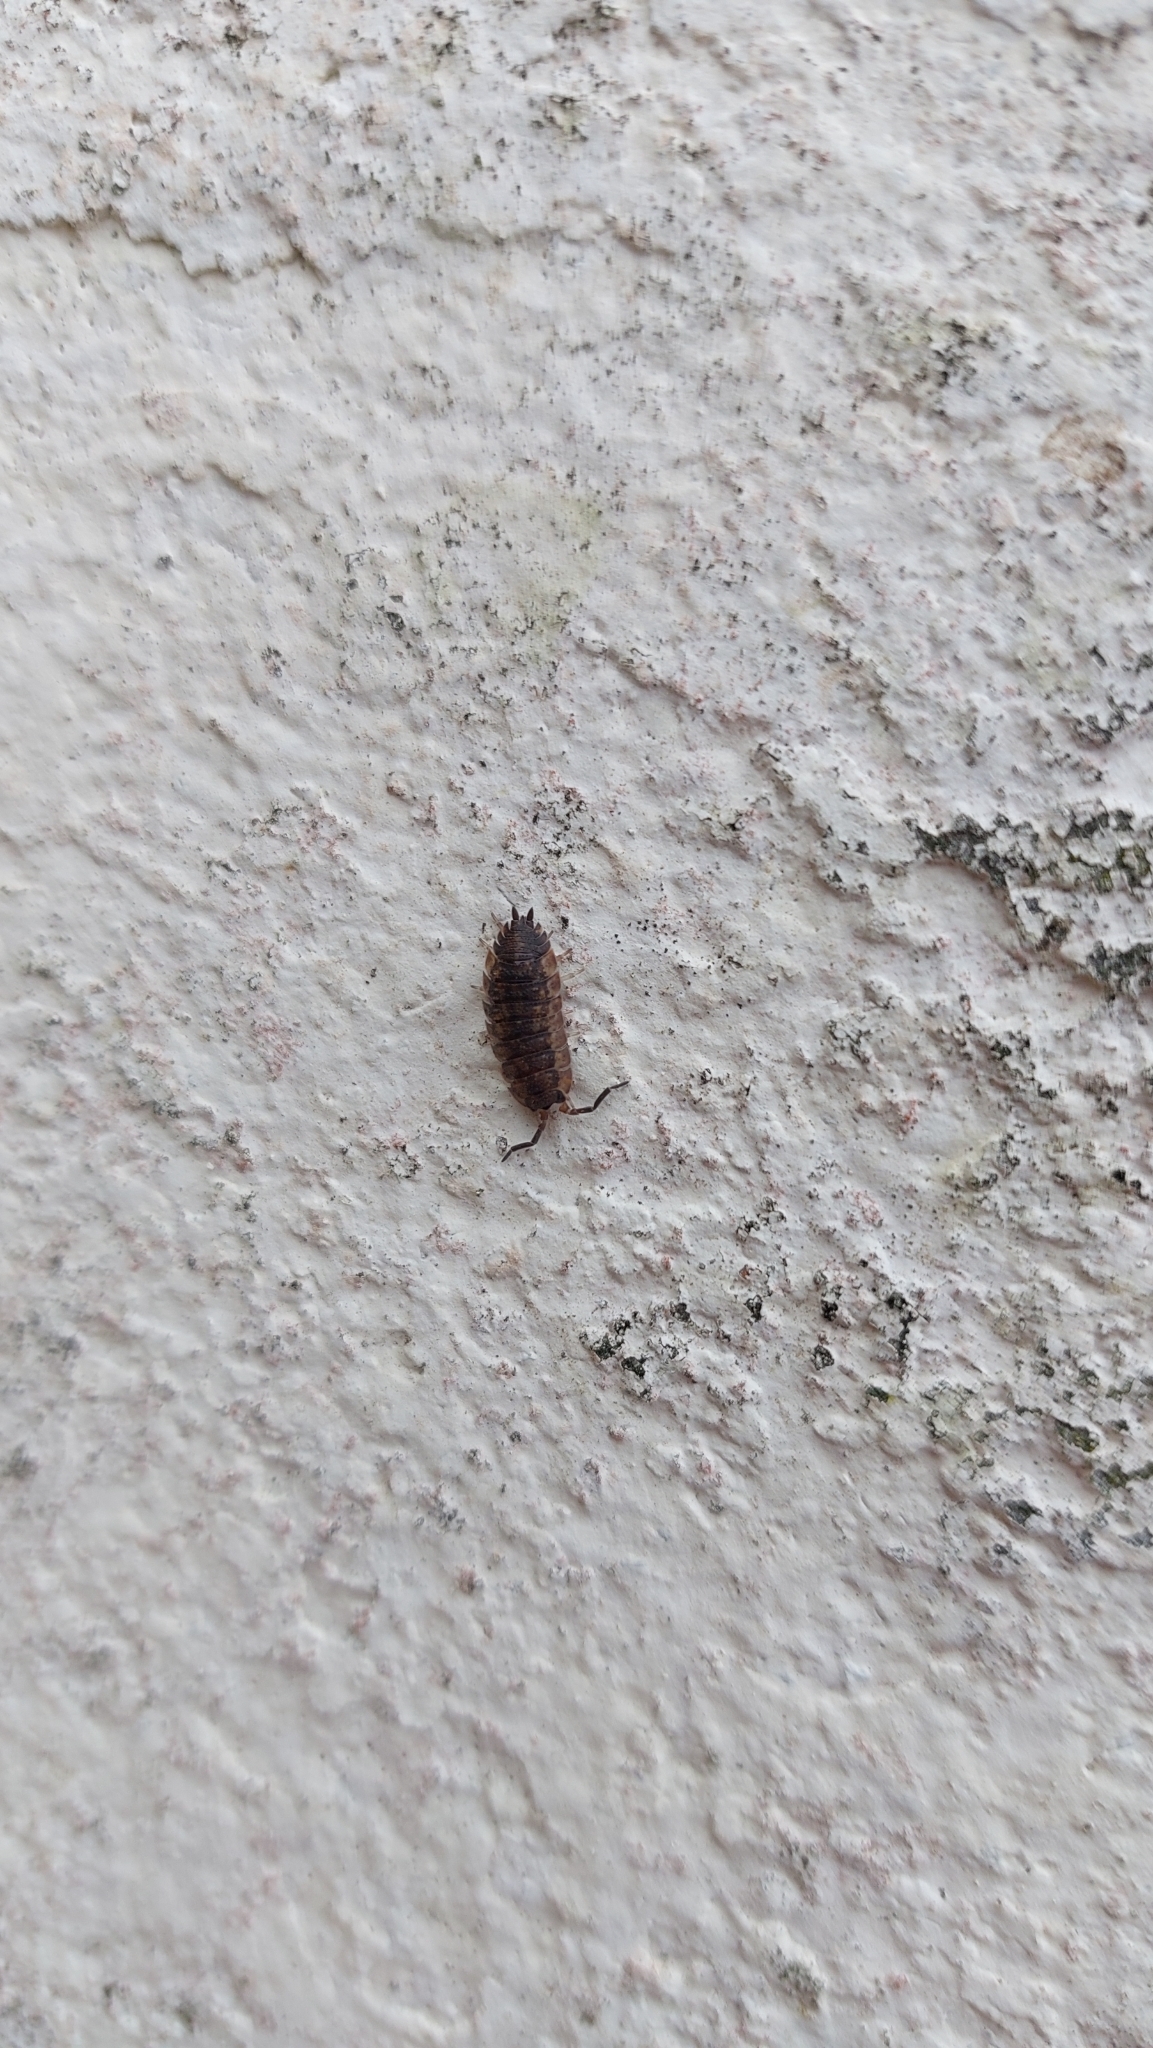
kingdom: Animalia
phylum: Arthropoda
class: Malacostraca
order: Isopoda
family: Porcellionidae
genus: Porcellio
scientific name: Porcellio scaber
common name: Common rough woodlouse
